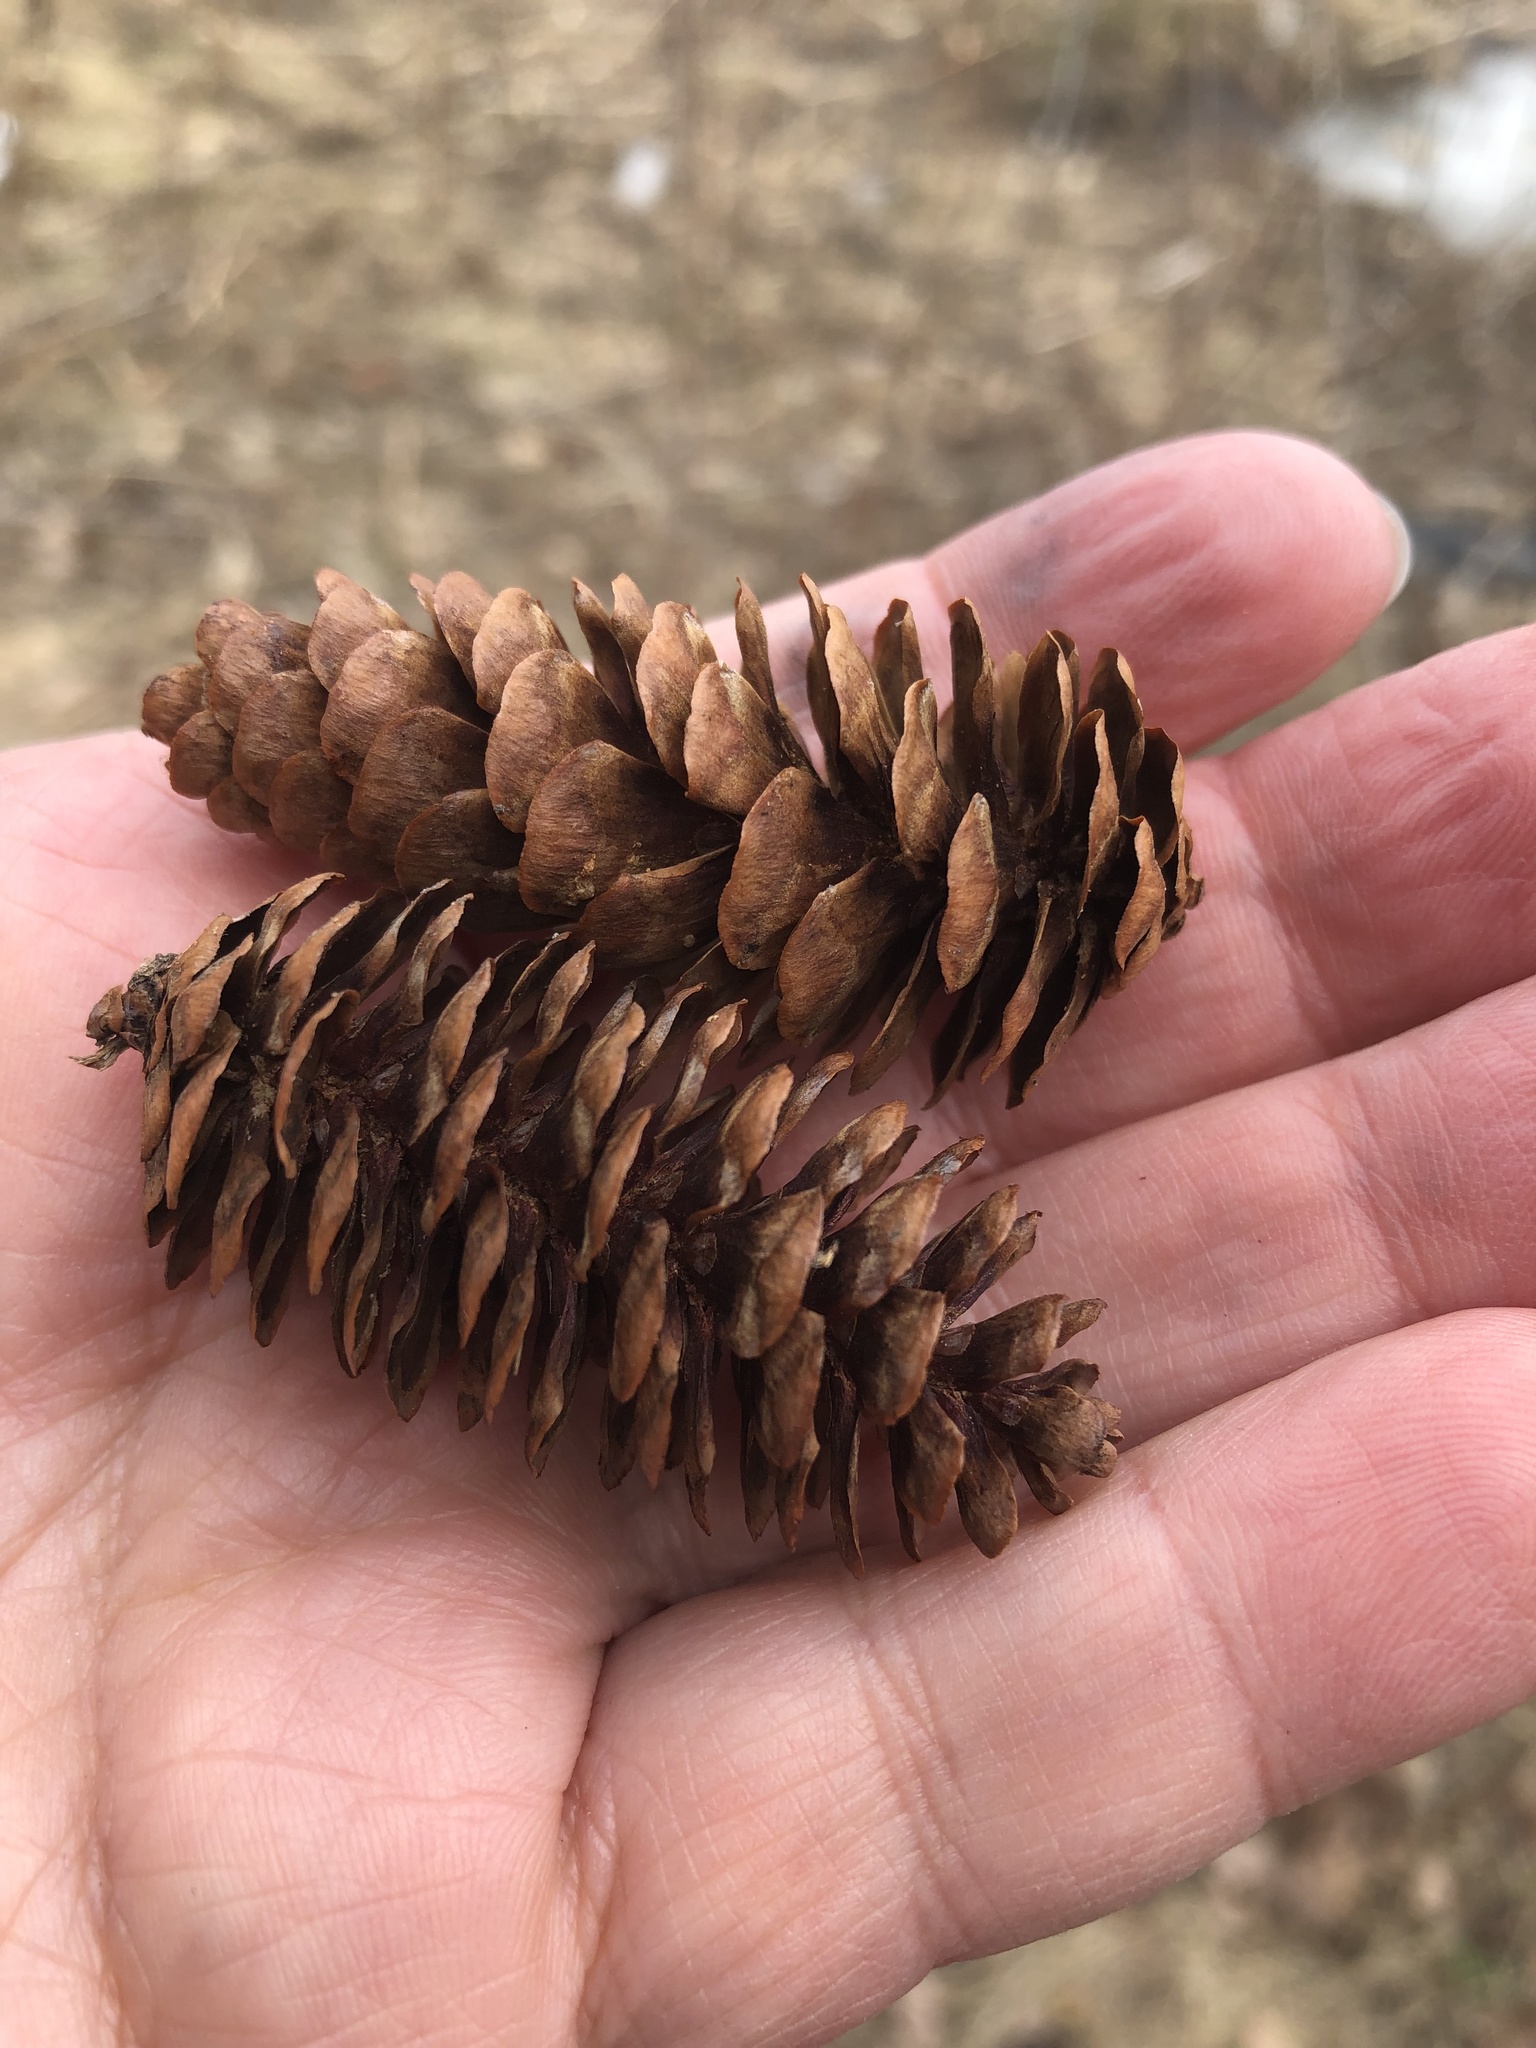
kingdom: Plantae
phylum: Tracheophyta
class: Pinopsida
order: Pinales
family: Pinaceae
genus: Picea
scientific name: Picea glauca
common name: White spruce
